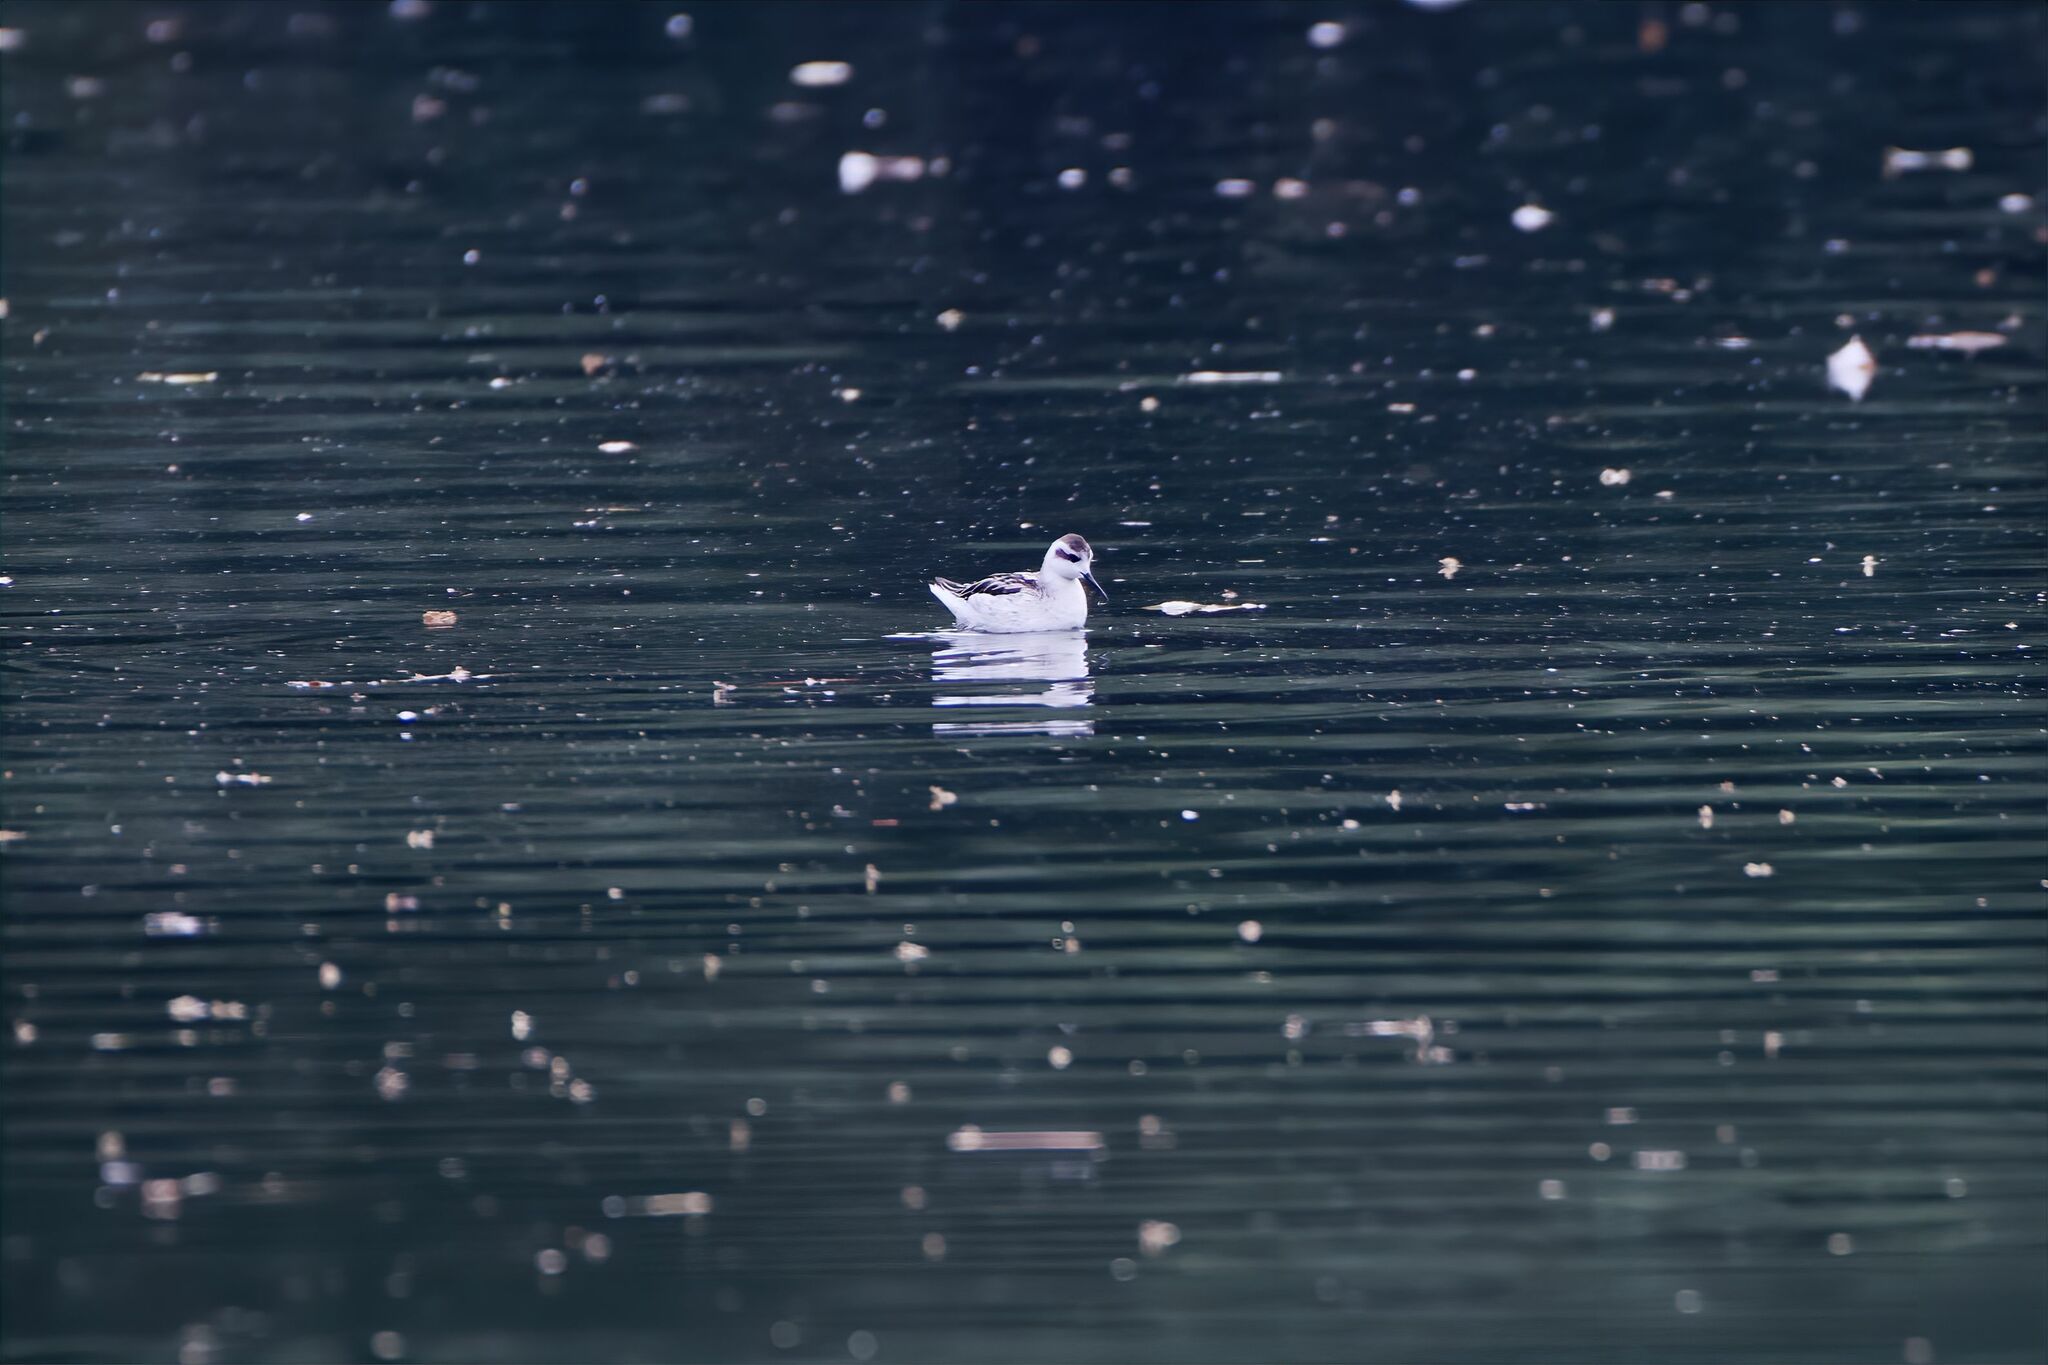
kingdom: Animalia
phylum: Chordata
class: Aves
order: Charadriiformes
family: Scolopacidae
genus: Phalaropus
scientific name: Phalaropus lobatus
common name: Red-necked phalarope
